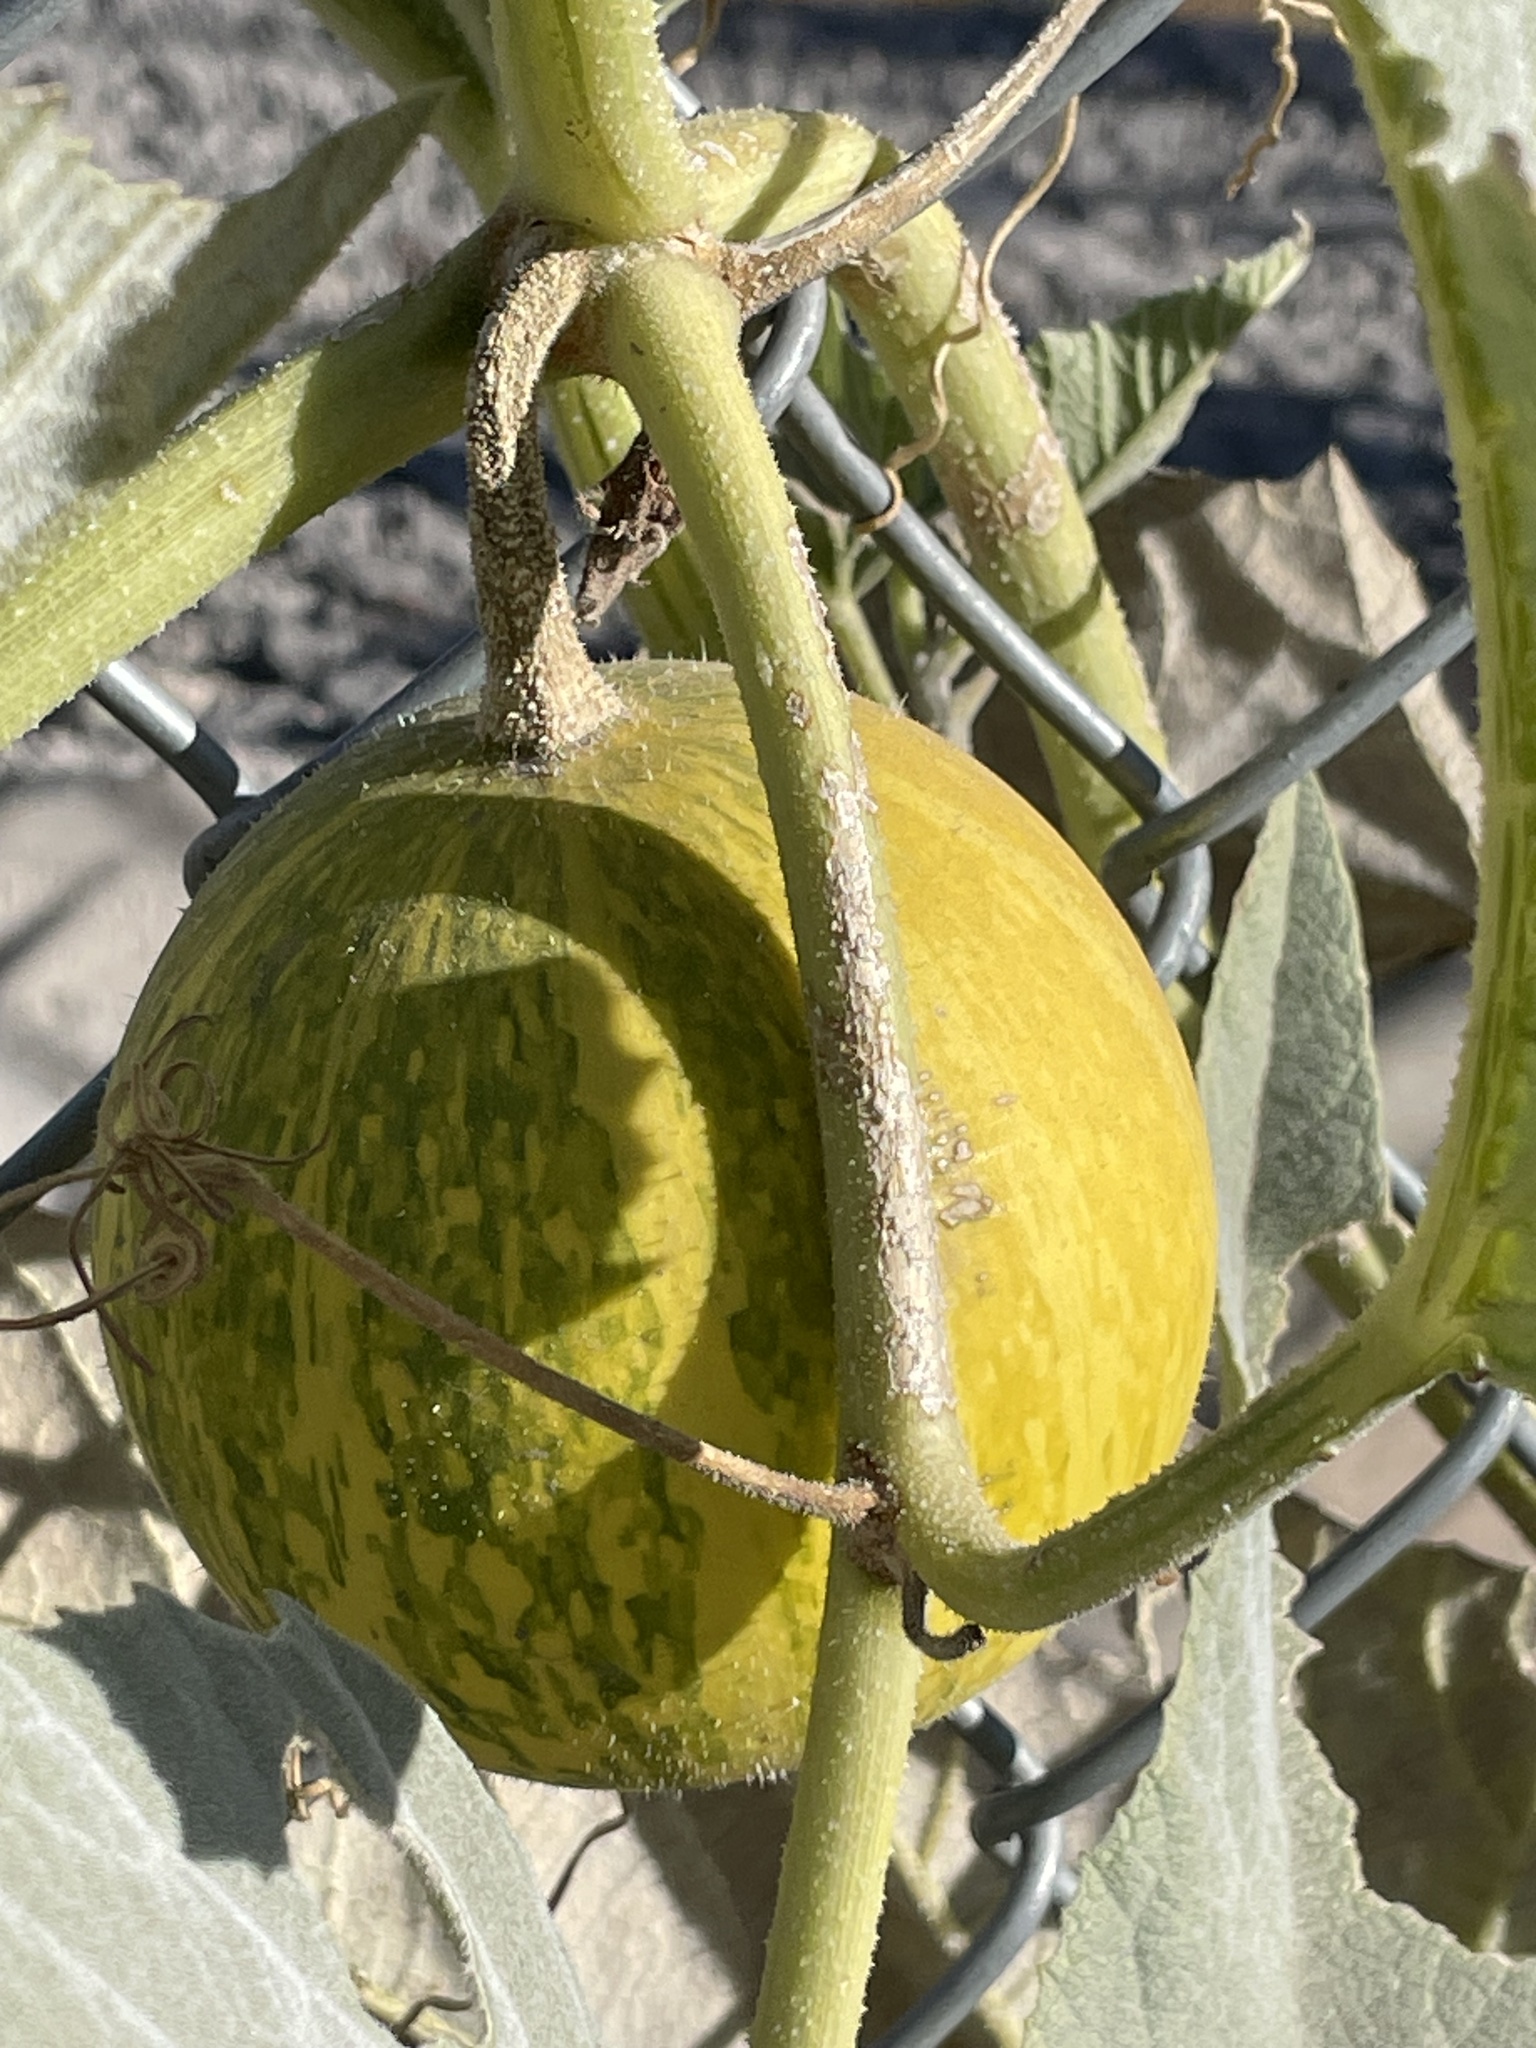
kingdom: Plantae
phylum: Tracheophyta
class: Magnoliopsida
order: Cucurbitales
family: Cucurbitaceae
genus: Cucurbita
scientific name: Cucurbita foetidissima
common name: Buffalo gourd
